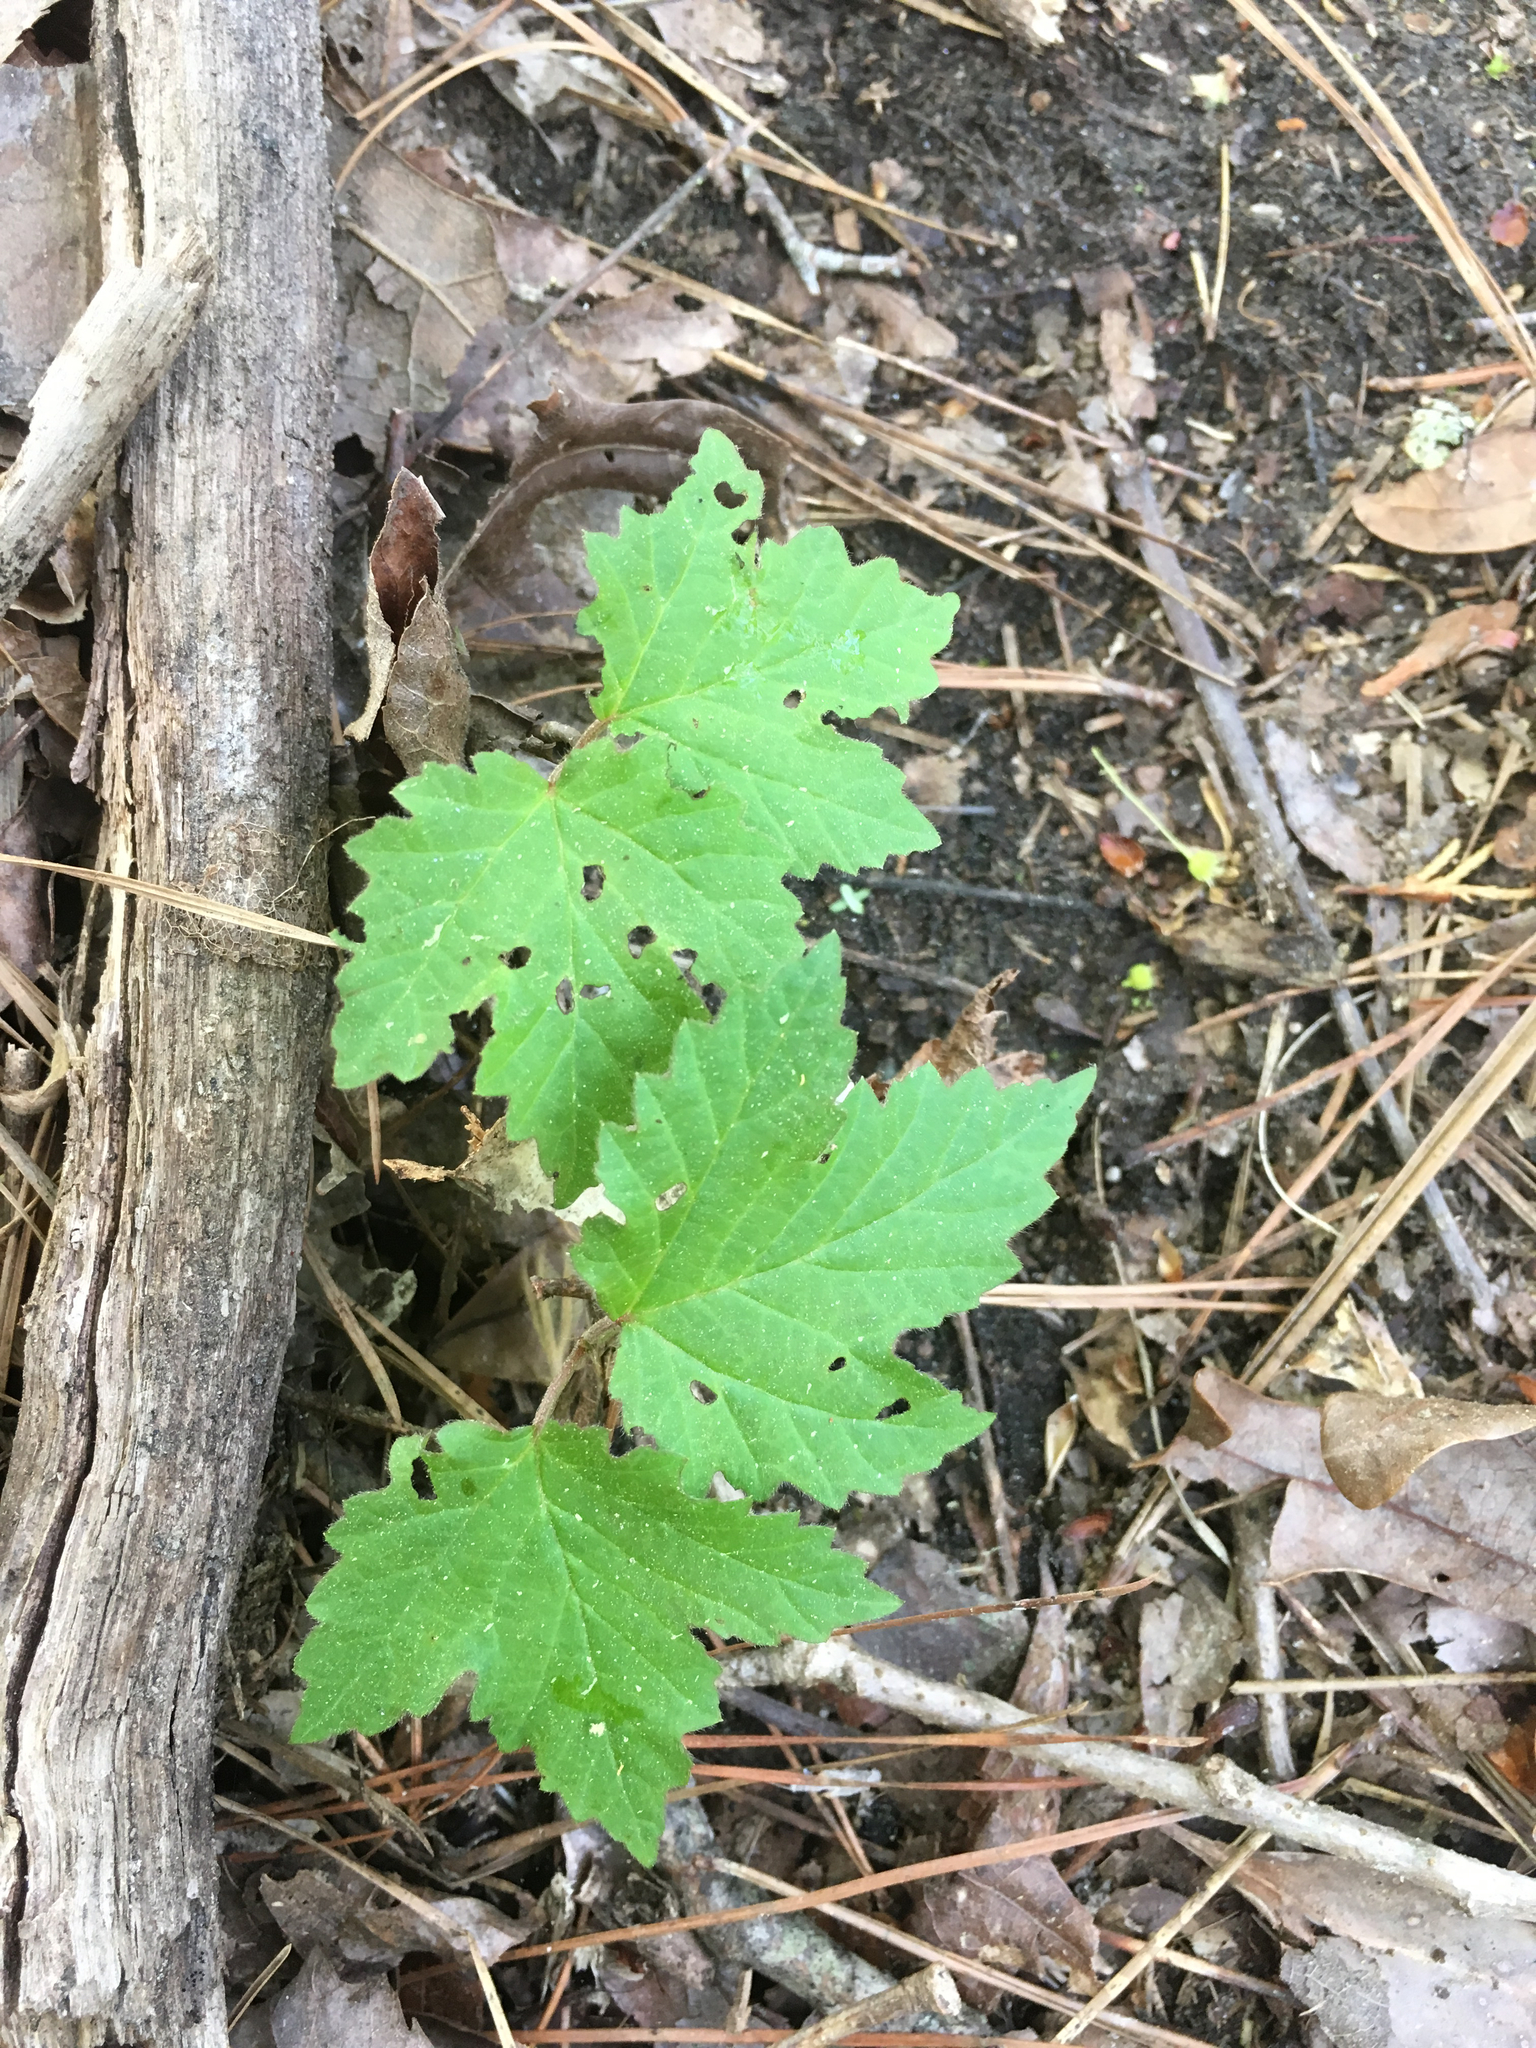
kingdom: Plantae
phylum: Tracheophyta
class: Magnoliopsida
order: Dipsacales
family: Viburnaceae
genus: Viburnum
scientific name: Viburnum acerifolium
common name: Dockmackie
